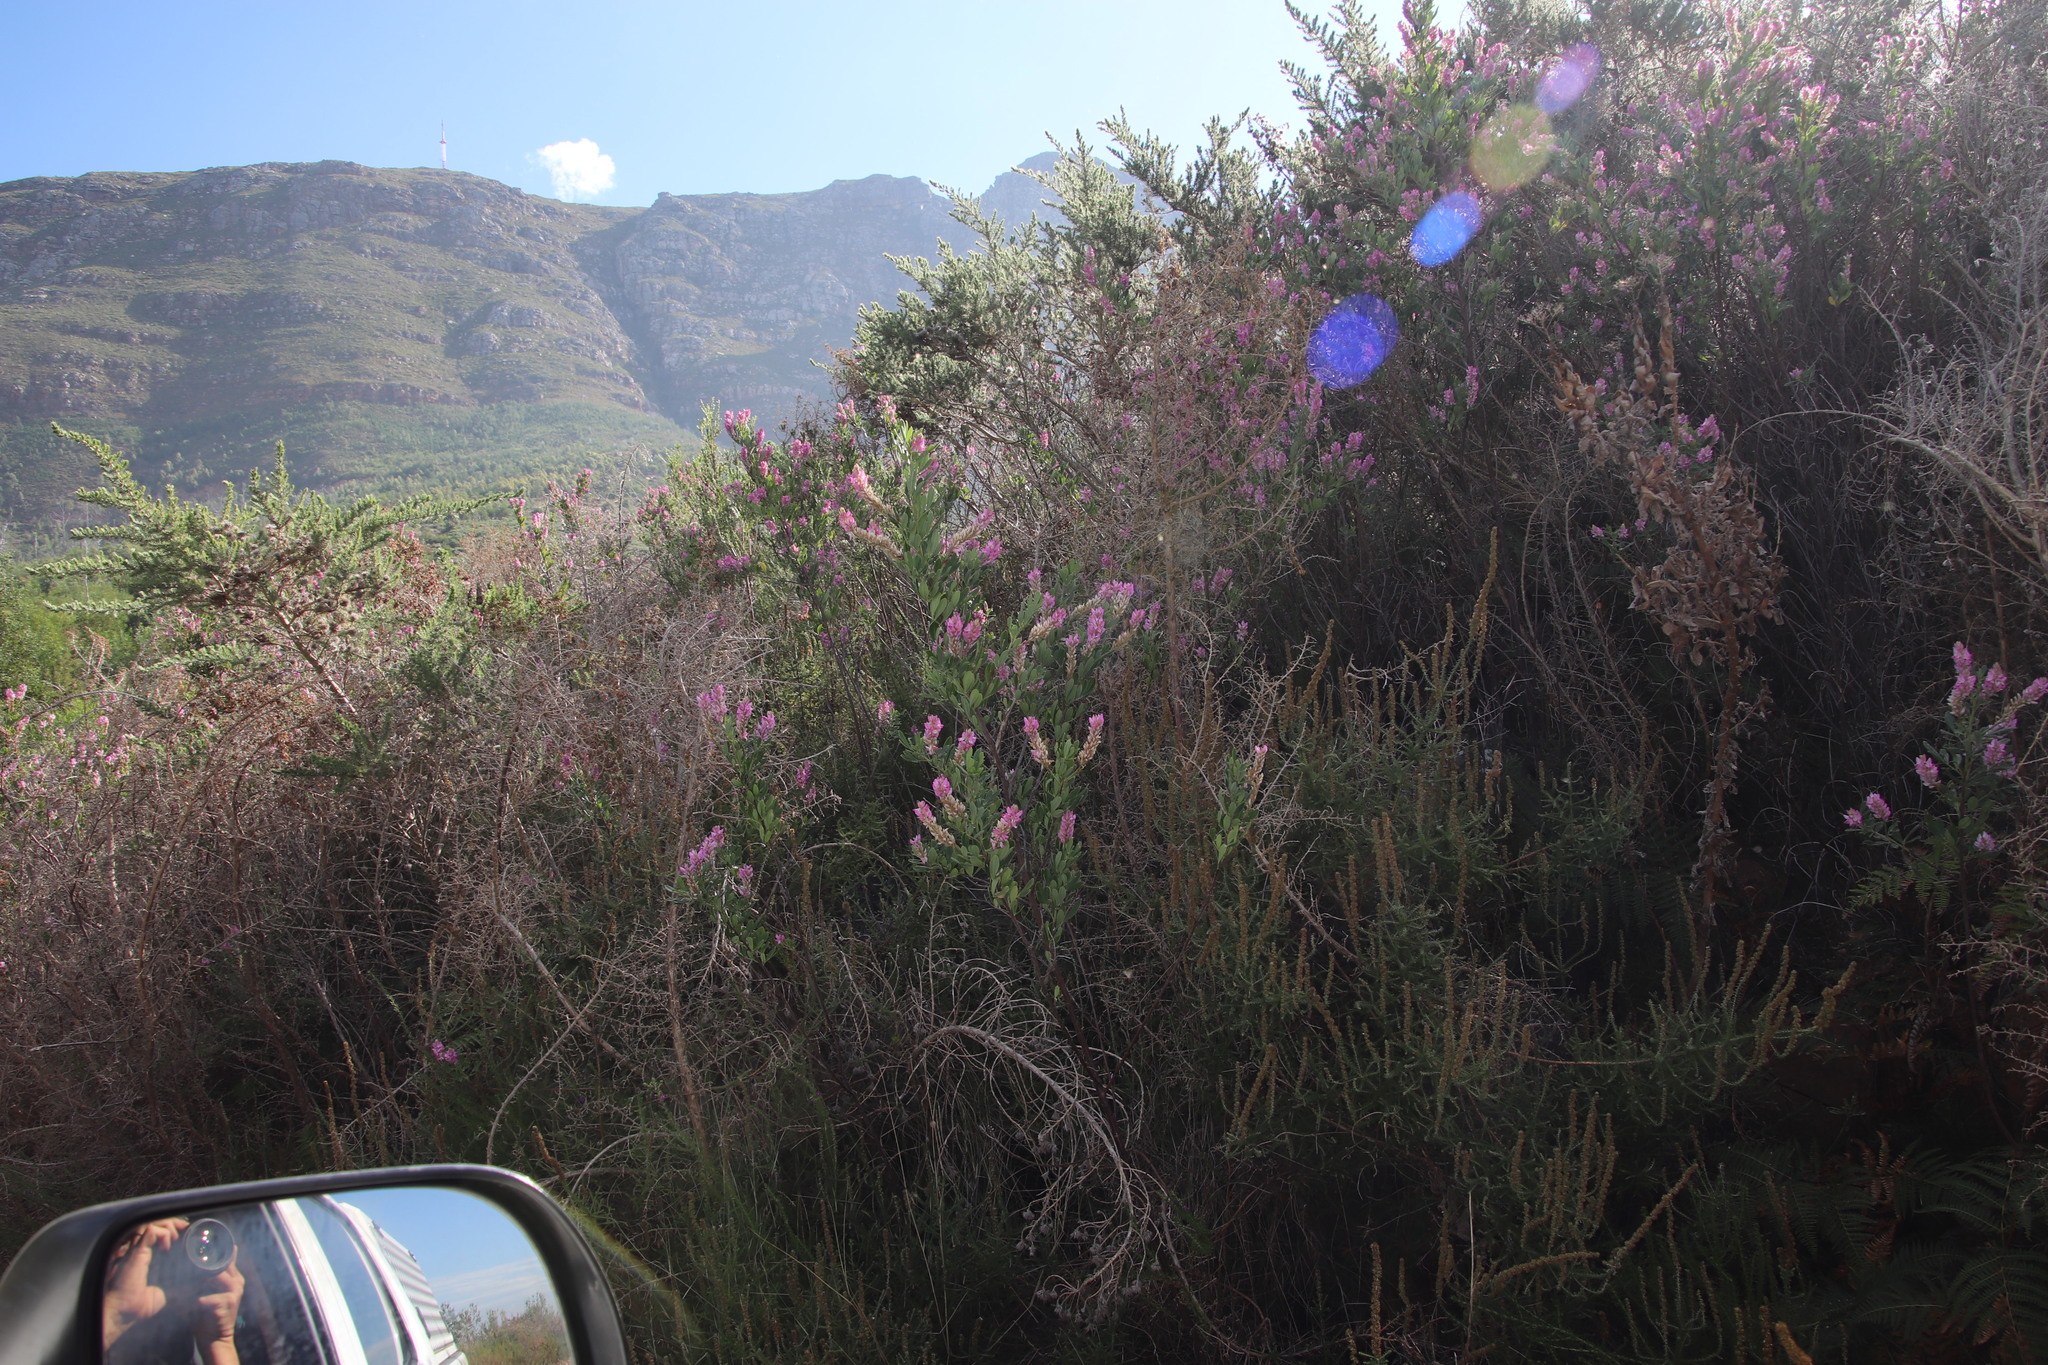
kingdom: Plantae
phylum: Tracheophyta
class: Magnoliopsida
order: Fabales
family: Fabaceae
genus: Indigofera
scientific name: Indigofera cytisoides
